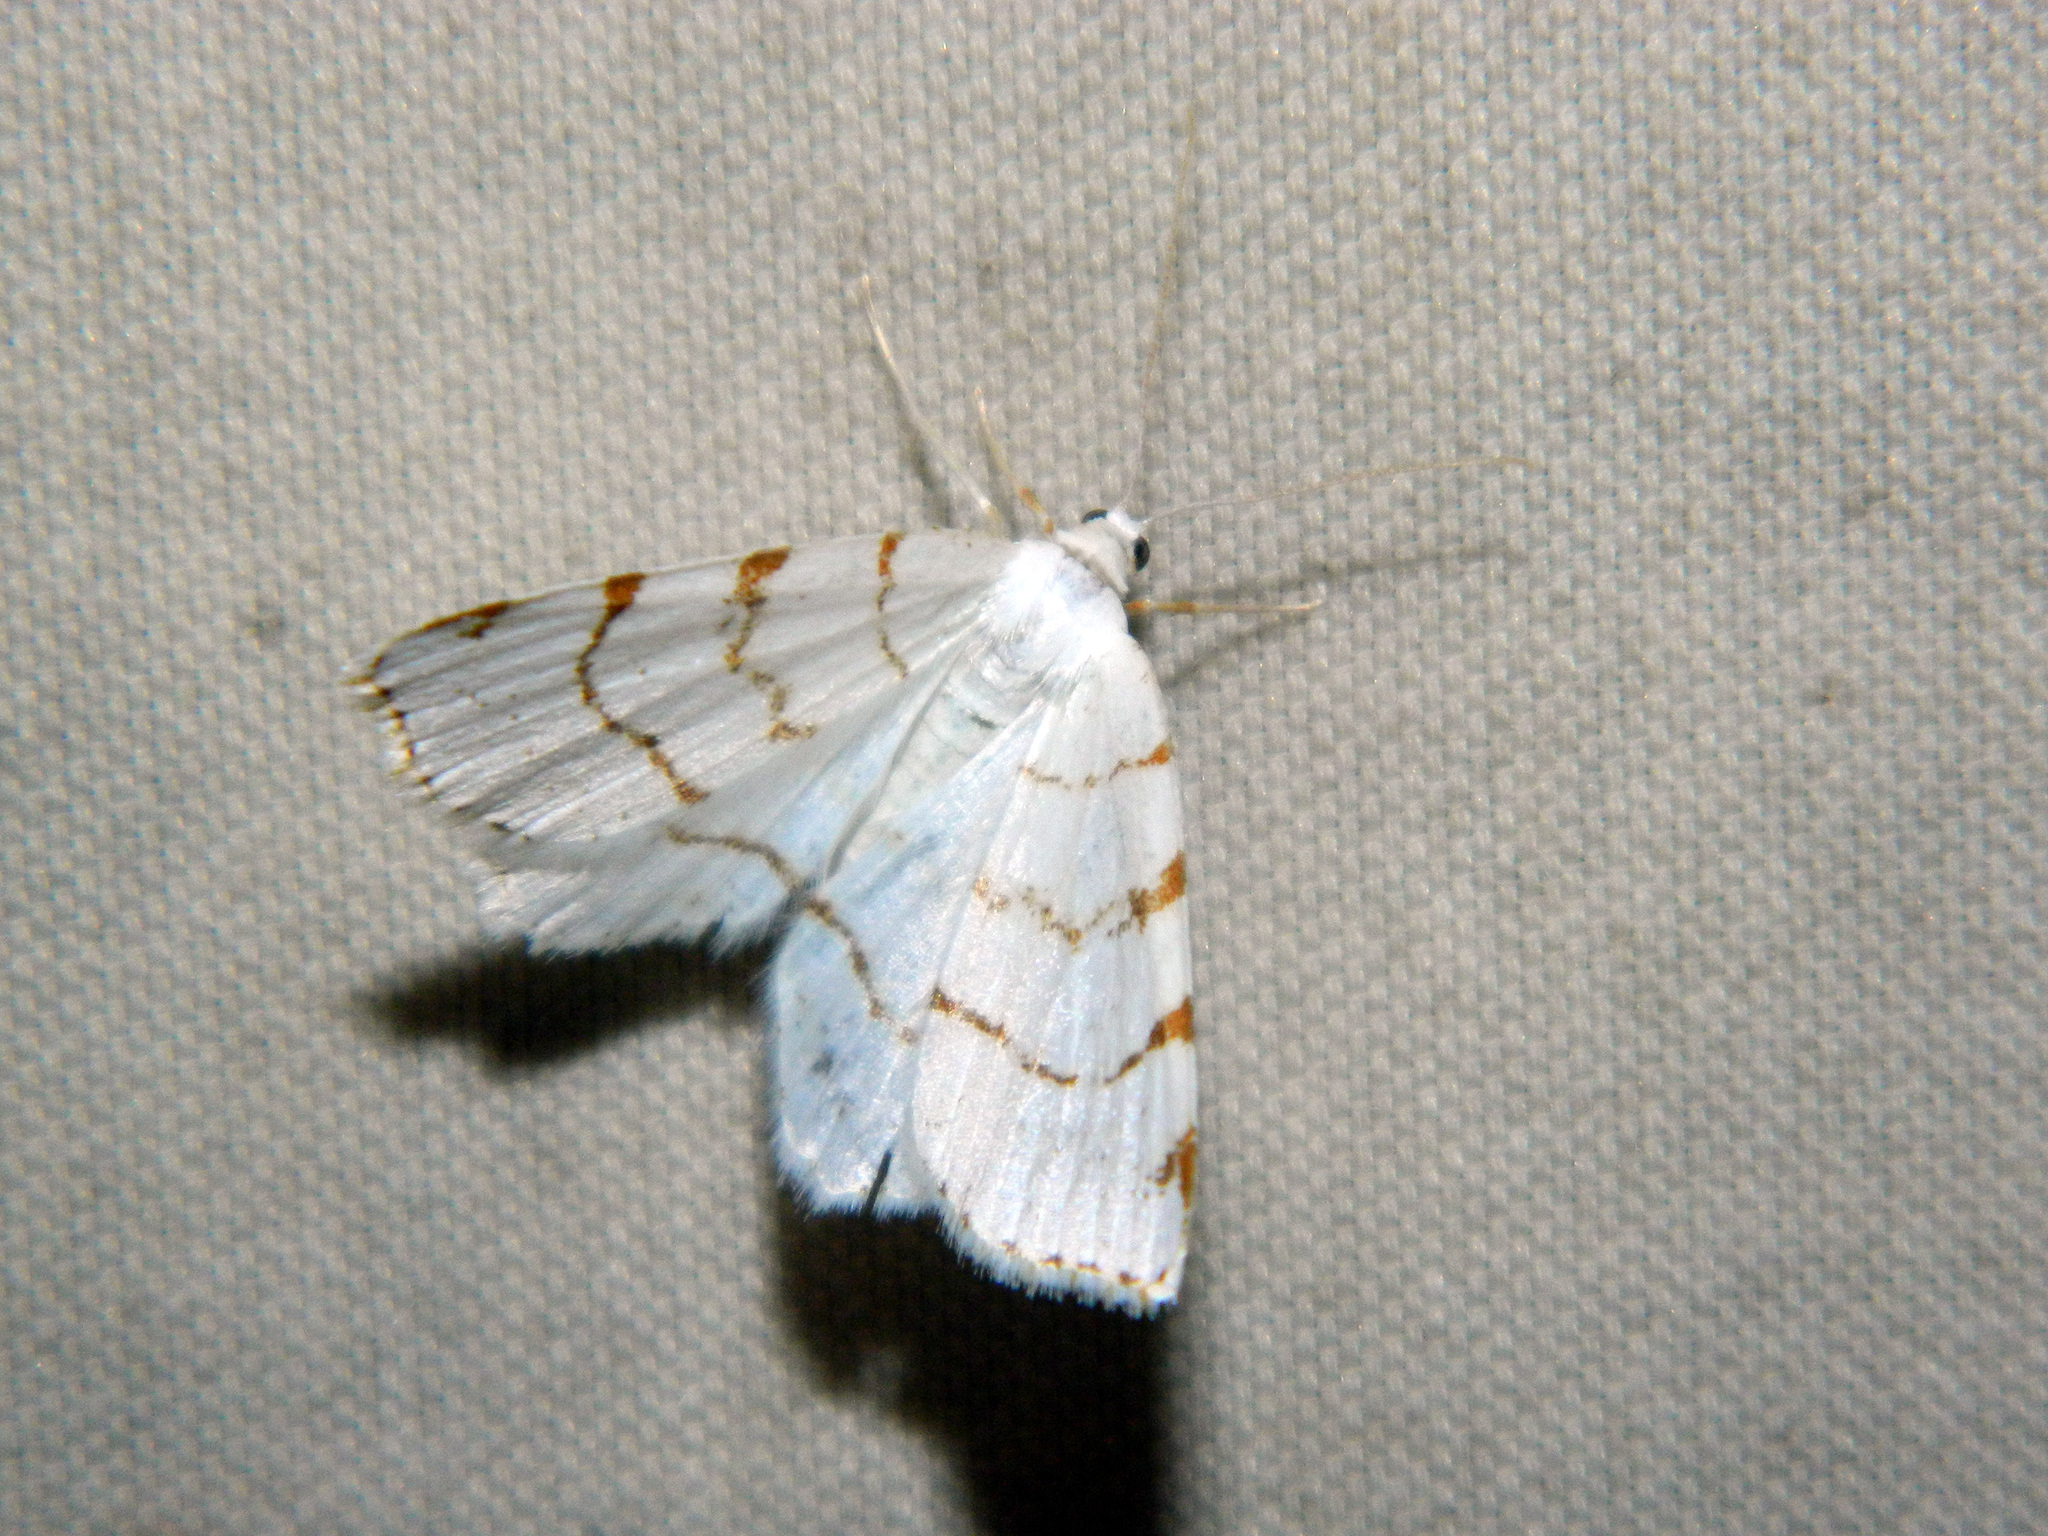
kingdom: Animalia
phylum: Arthropoda
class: Insecta
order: Lepidoptera
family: Geometridae
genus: Macaria
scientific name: Macaria pustularia
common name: Lesser maple spanworm moth
